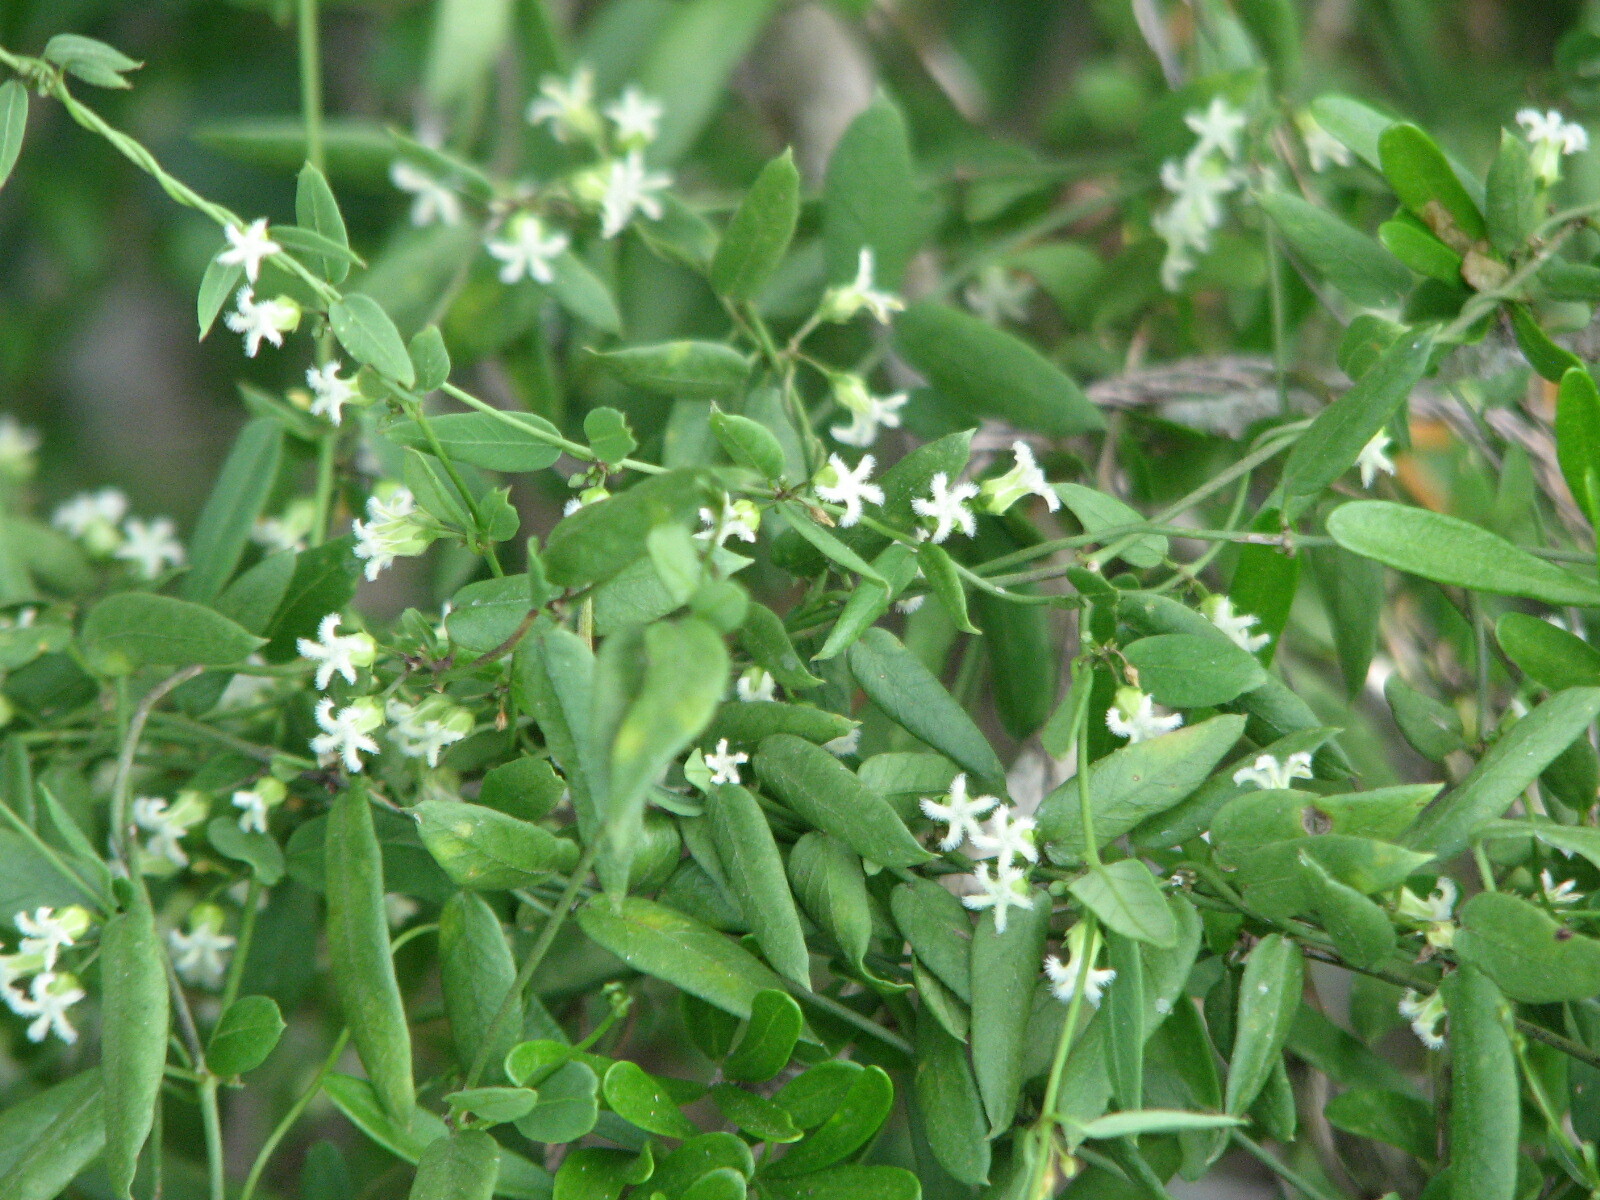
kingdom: Plantae
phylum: Tracheophyta
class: Magnoliopsida
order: Gentianales
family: Apocynaceae
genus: Metastelma
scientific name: Metastelma barbigerum
